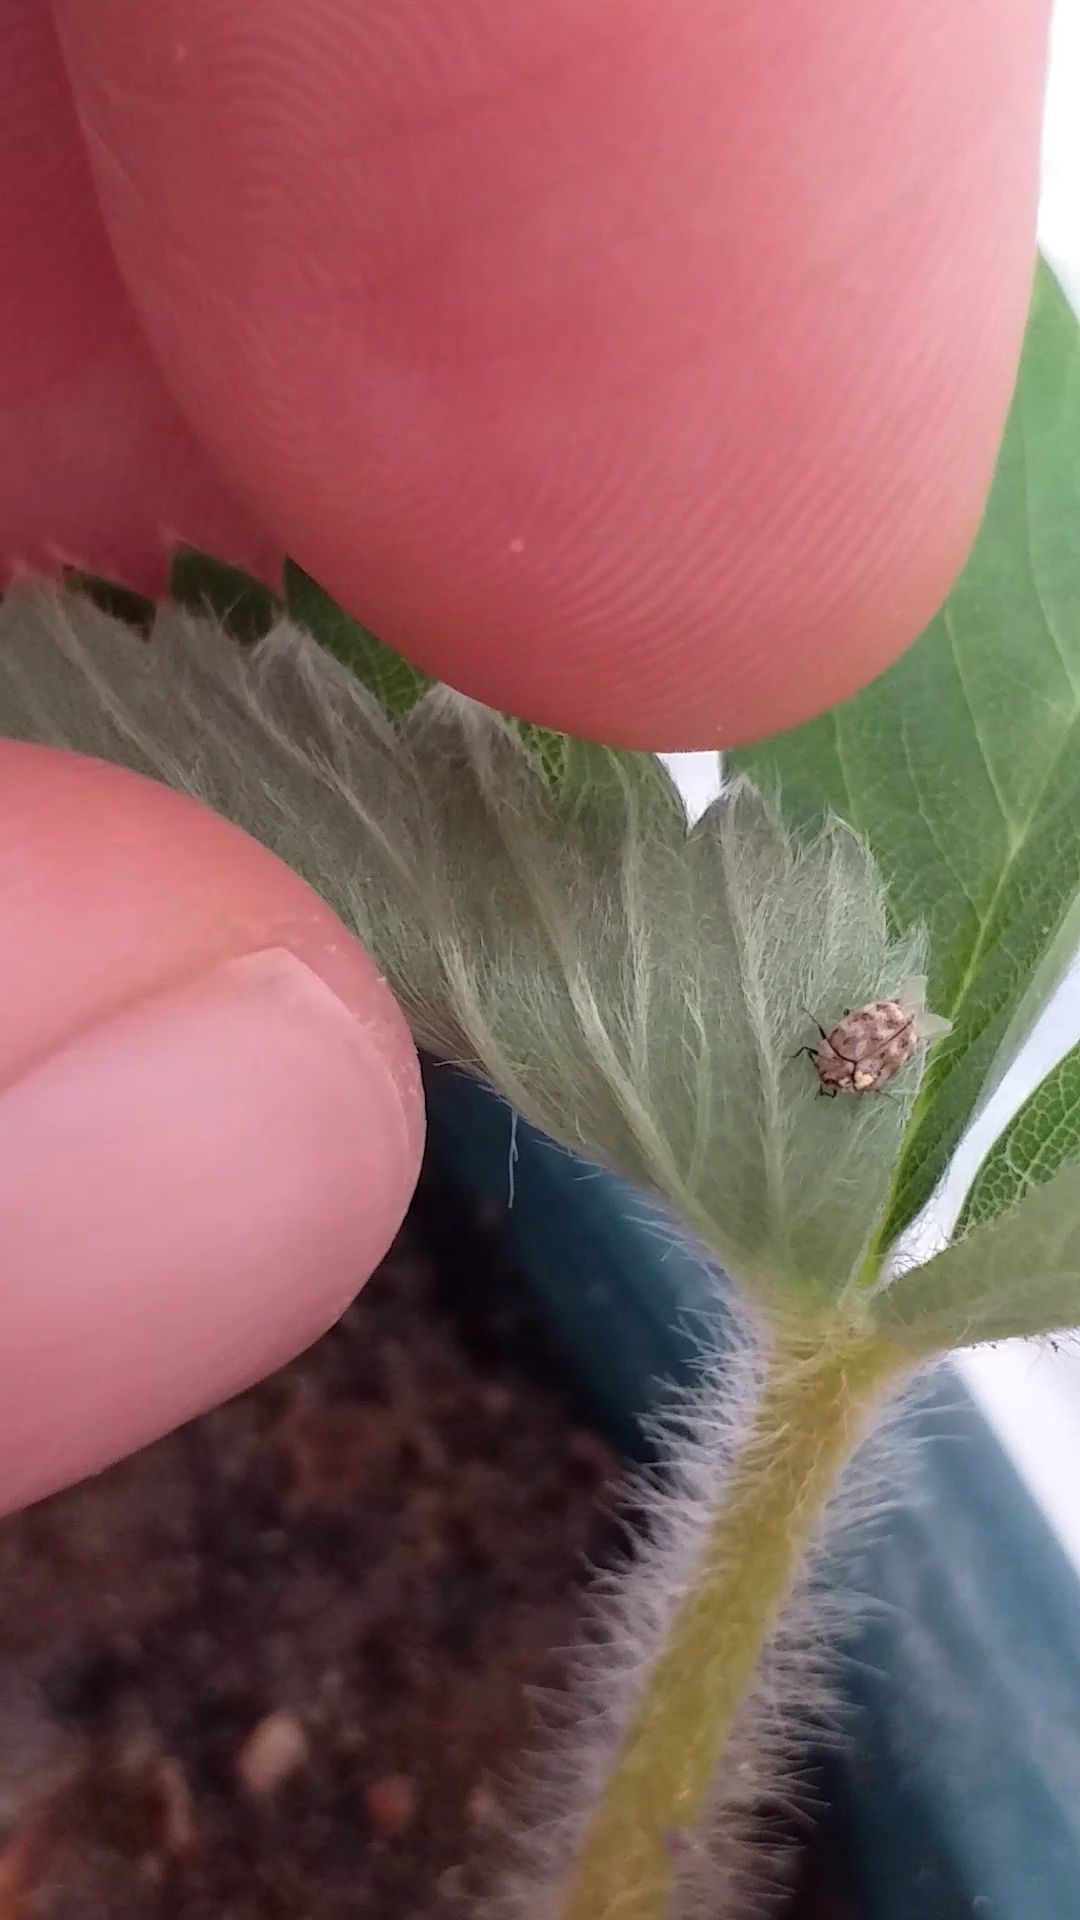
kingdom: Animalia
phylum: Arthropoda
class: Insecta
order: Coleoptera
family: Dermestidae
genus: Anthrenus
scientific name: Anthrenus verbasci
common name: Varied carpet beetle
